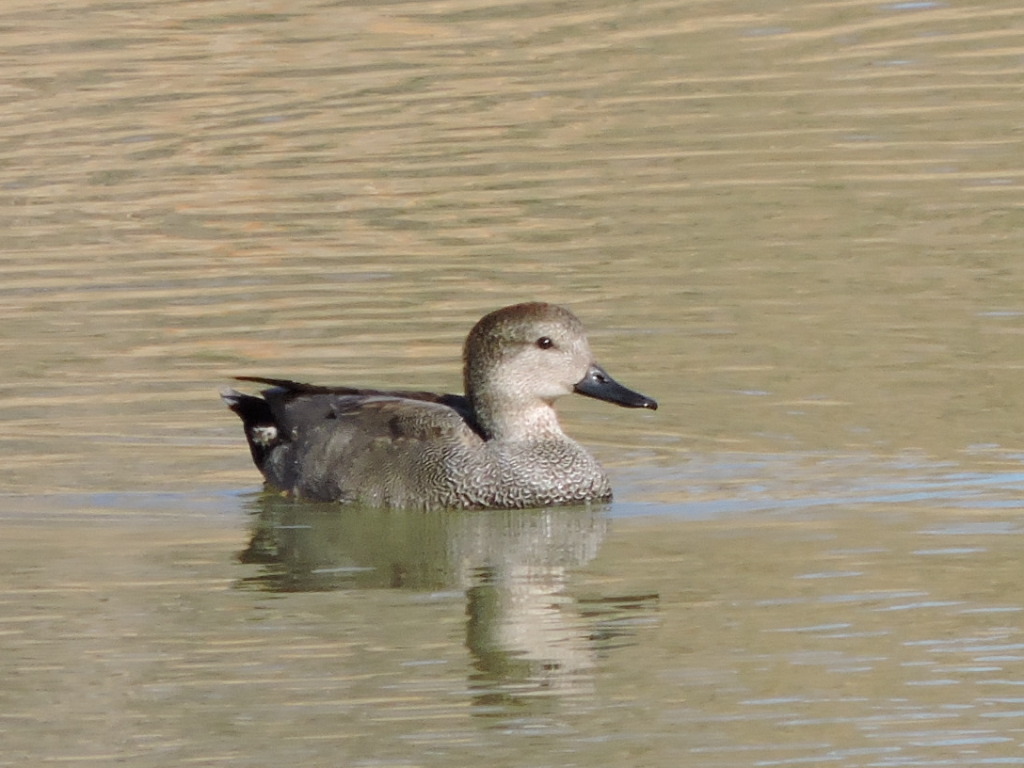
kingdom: Animalia
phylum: Chordata
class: Aves
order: Anseriformes
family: Anatidae
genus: Mareca
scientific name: Mareca strepera
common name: Gadwall
